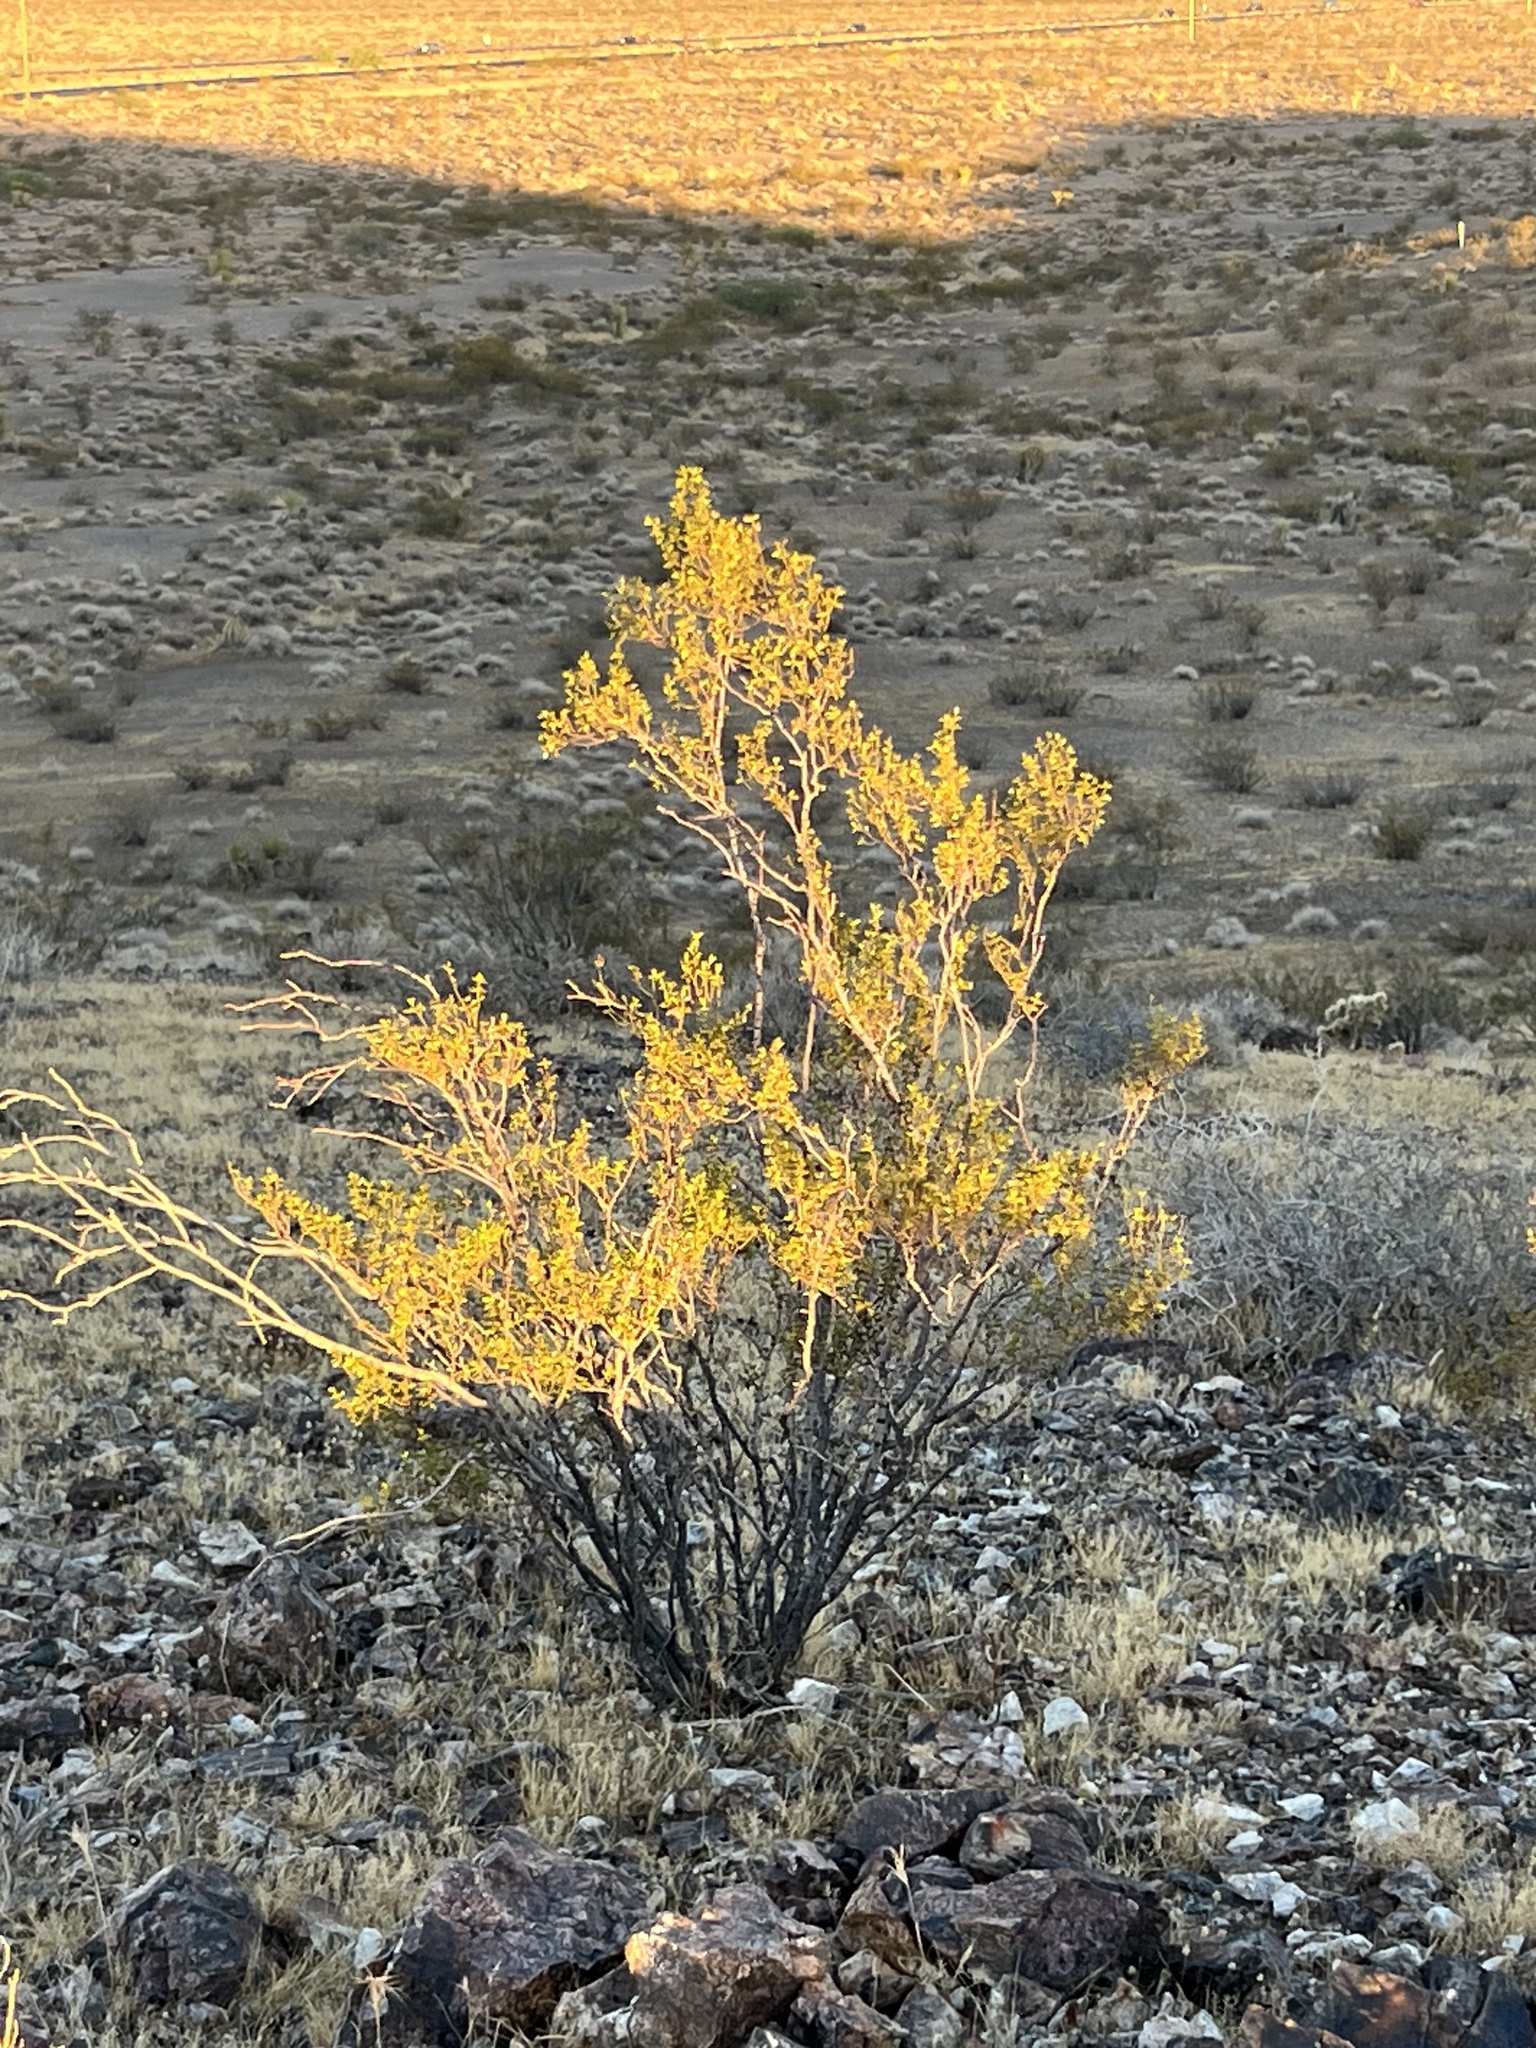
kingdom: Plantae
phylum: Tracheophyta
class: Magnoliopsida
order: Zygophyllales
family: Zygophyllaceae
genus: Larrea
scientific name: Larrea tridentata
